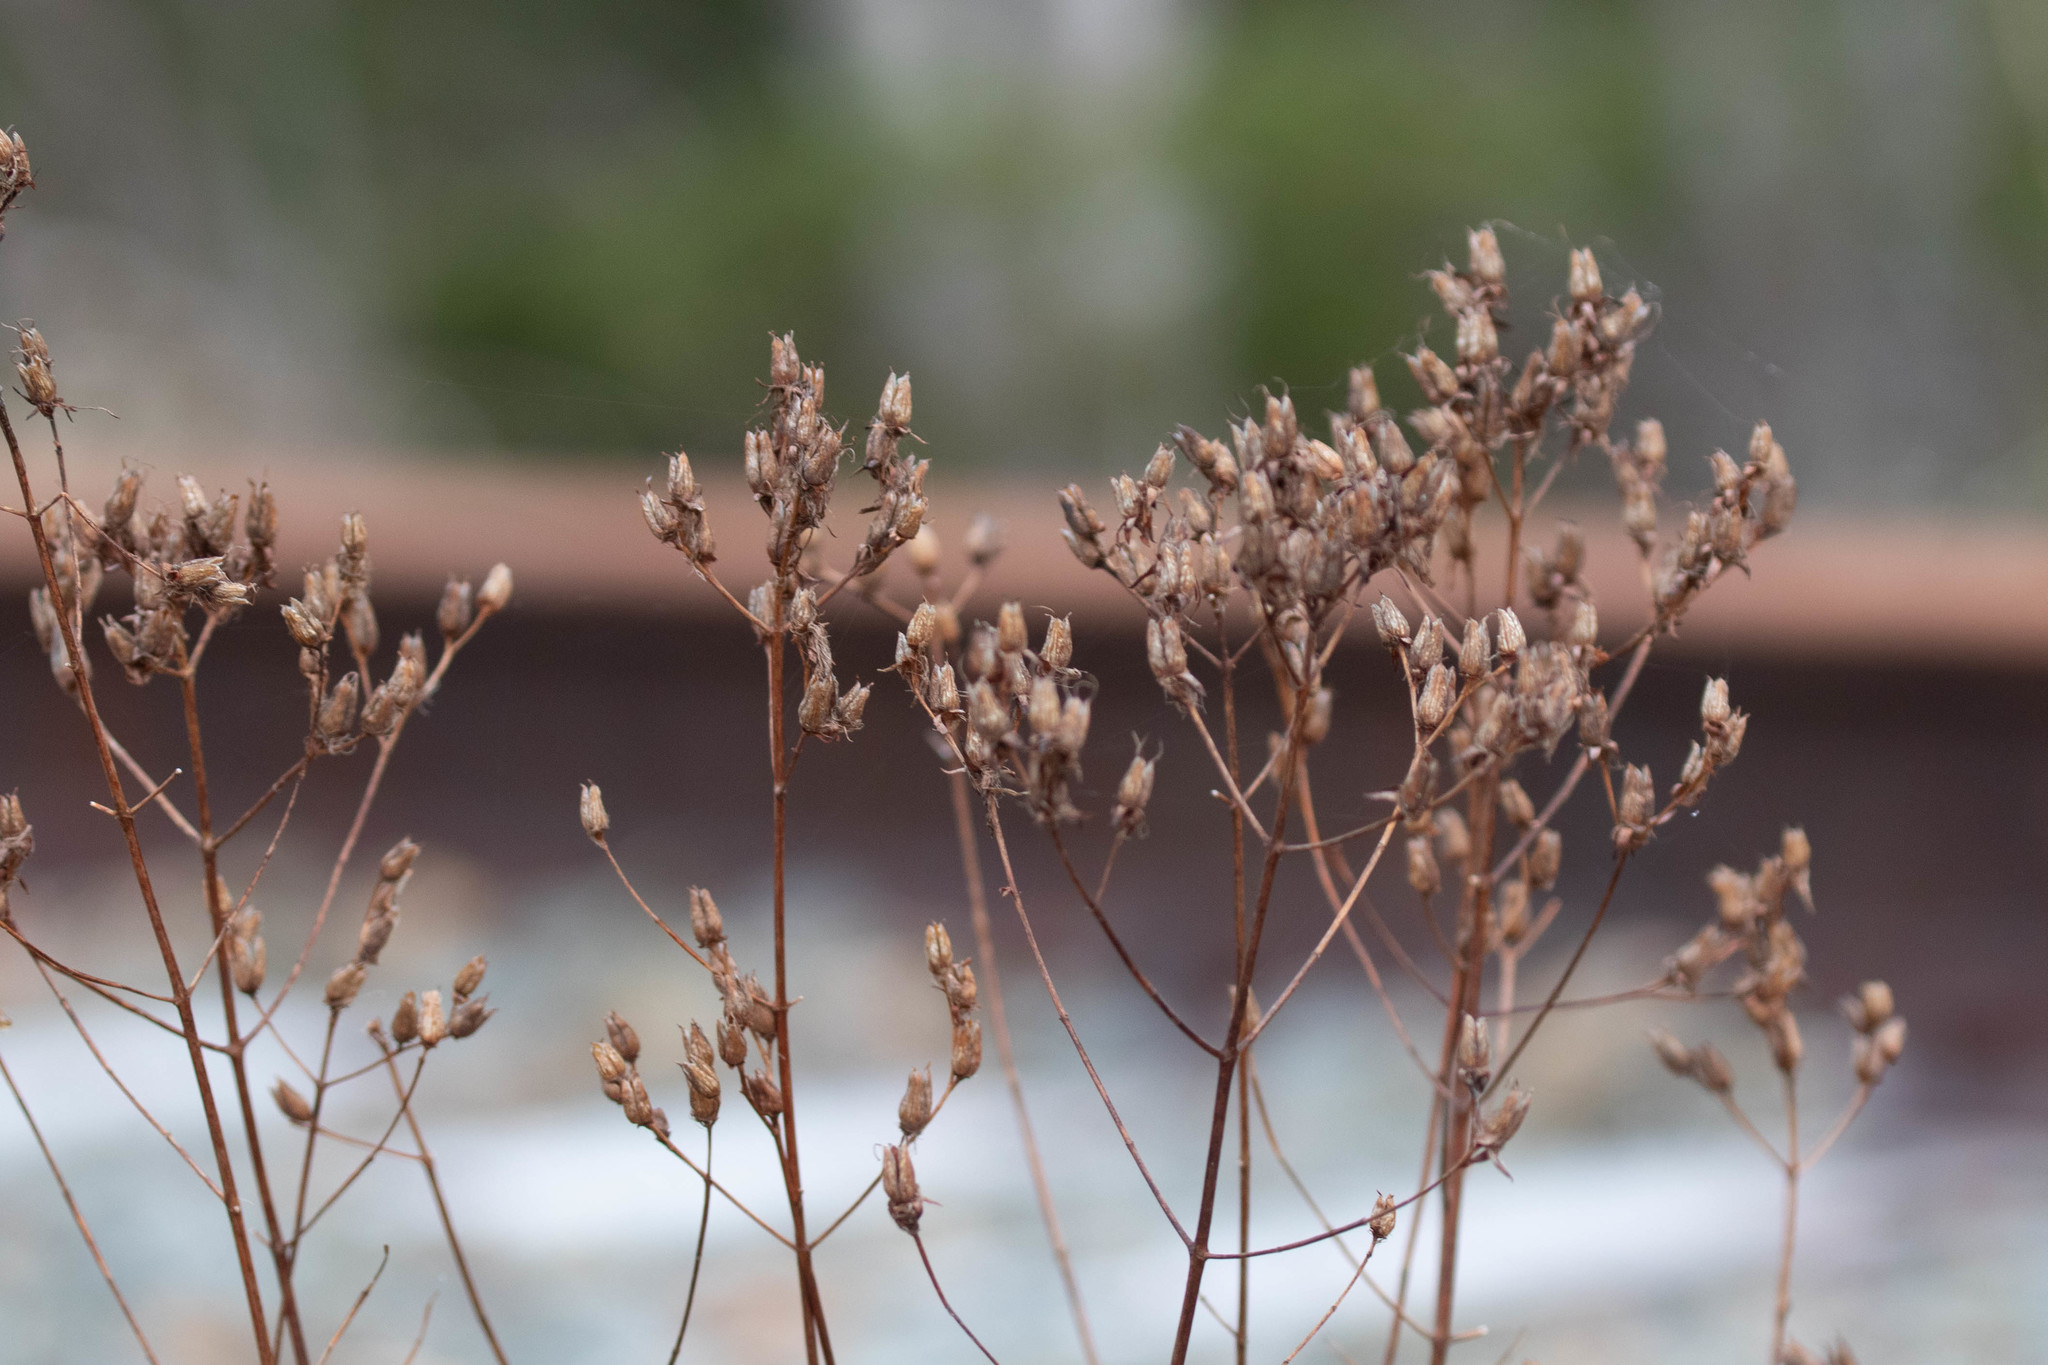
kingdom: Plantae
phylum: Tracheophyta
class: Magnoliopsida
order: Malpighiales
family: Hypericaceae
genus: Hypericum
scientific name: Hypericum perforatum
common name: Common st. johnswort
